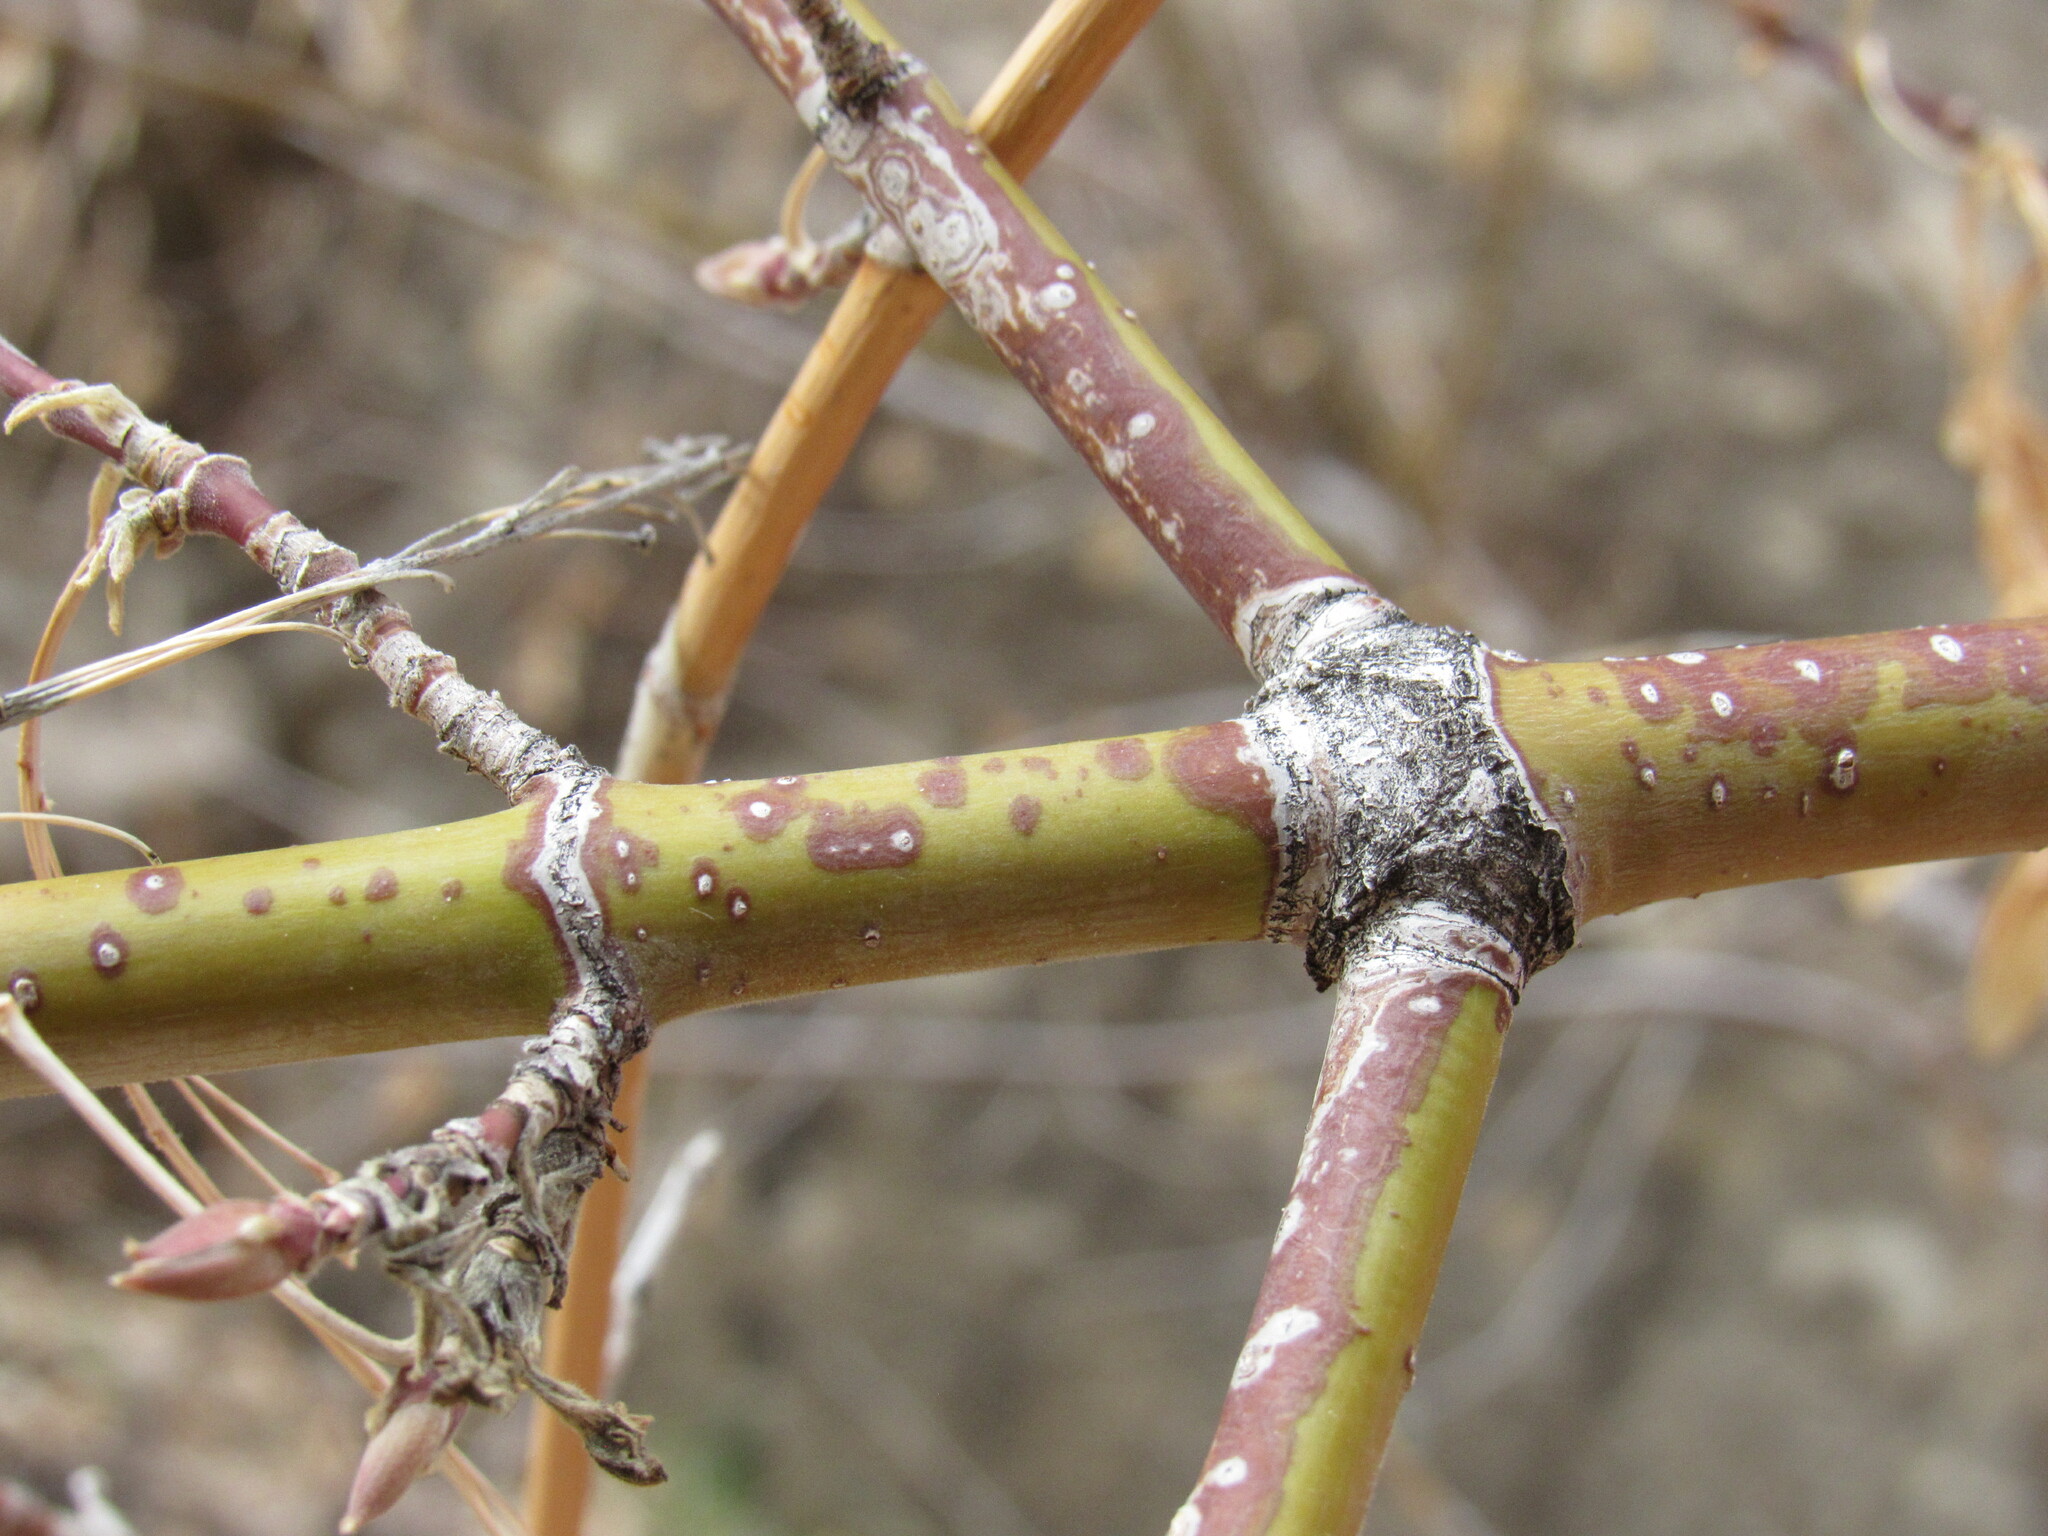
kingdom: Plantae
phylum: Tracheophyta
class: Magnoliopsida
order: Sapindales
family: Sapindaceae
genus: Acer
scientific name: Acer negundo
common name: Ashleaf maple
